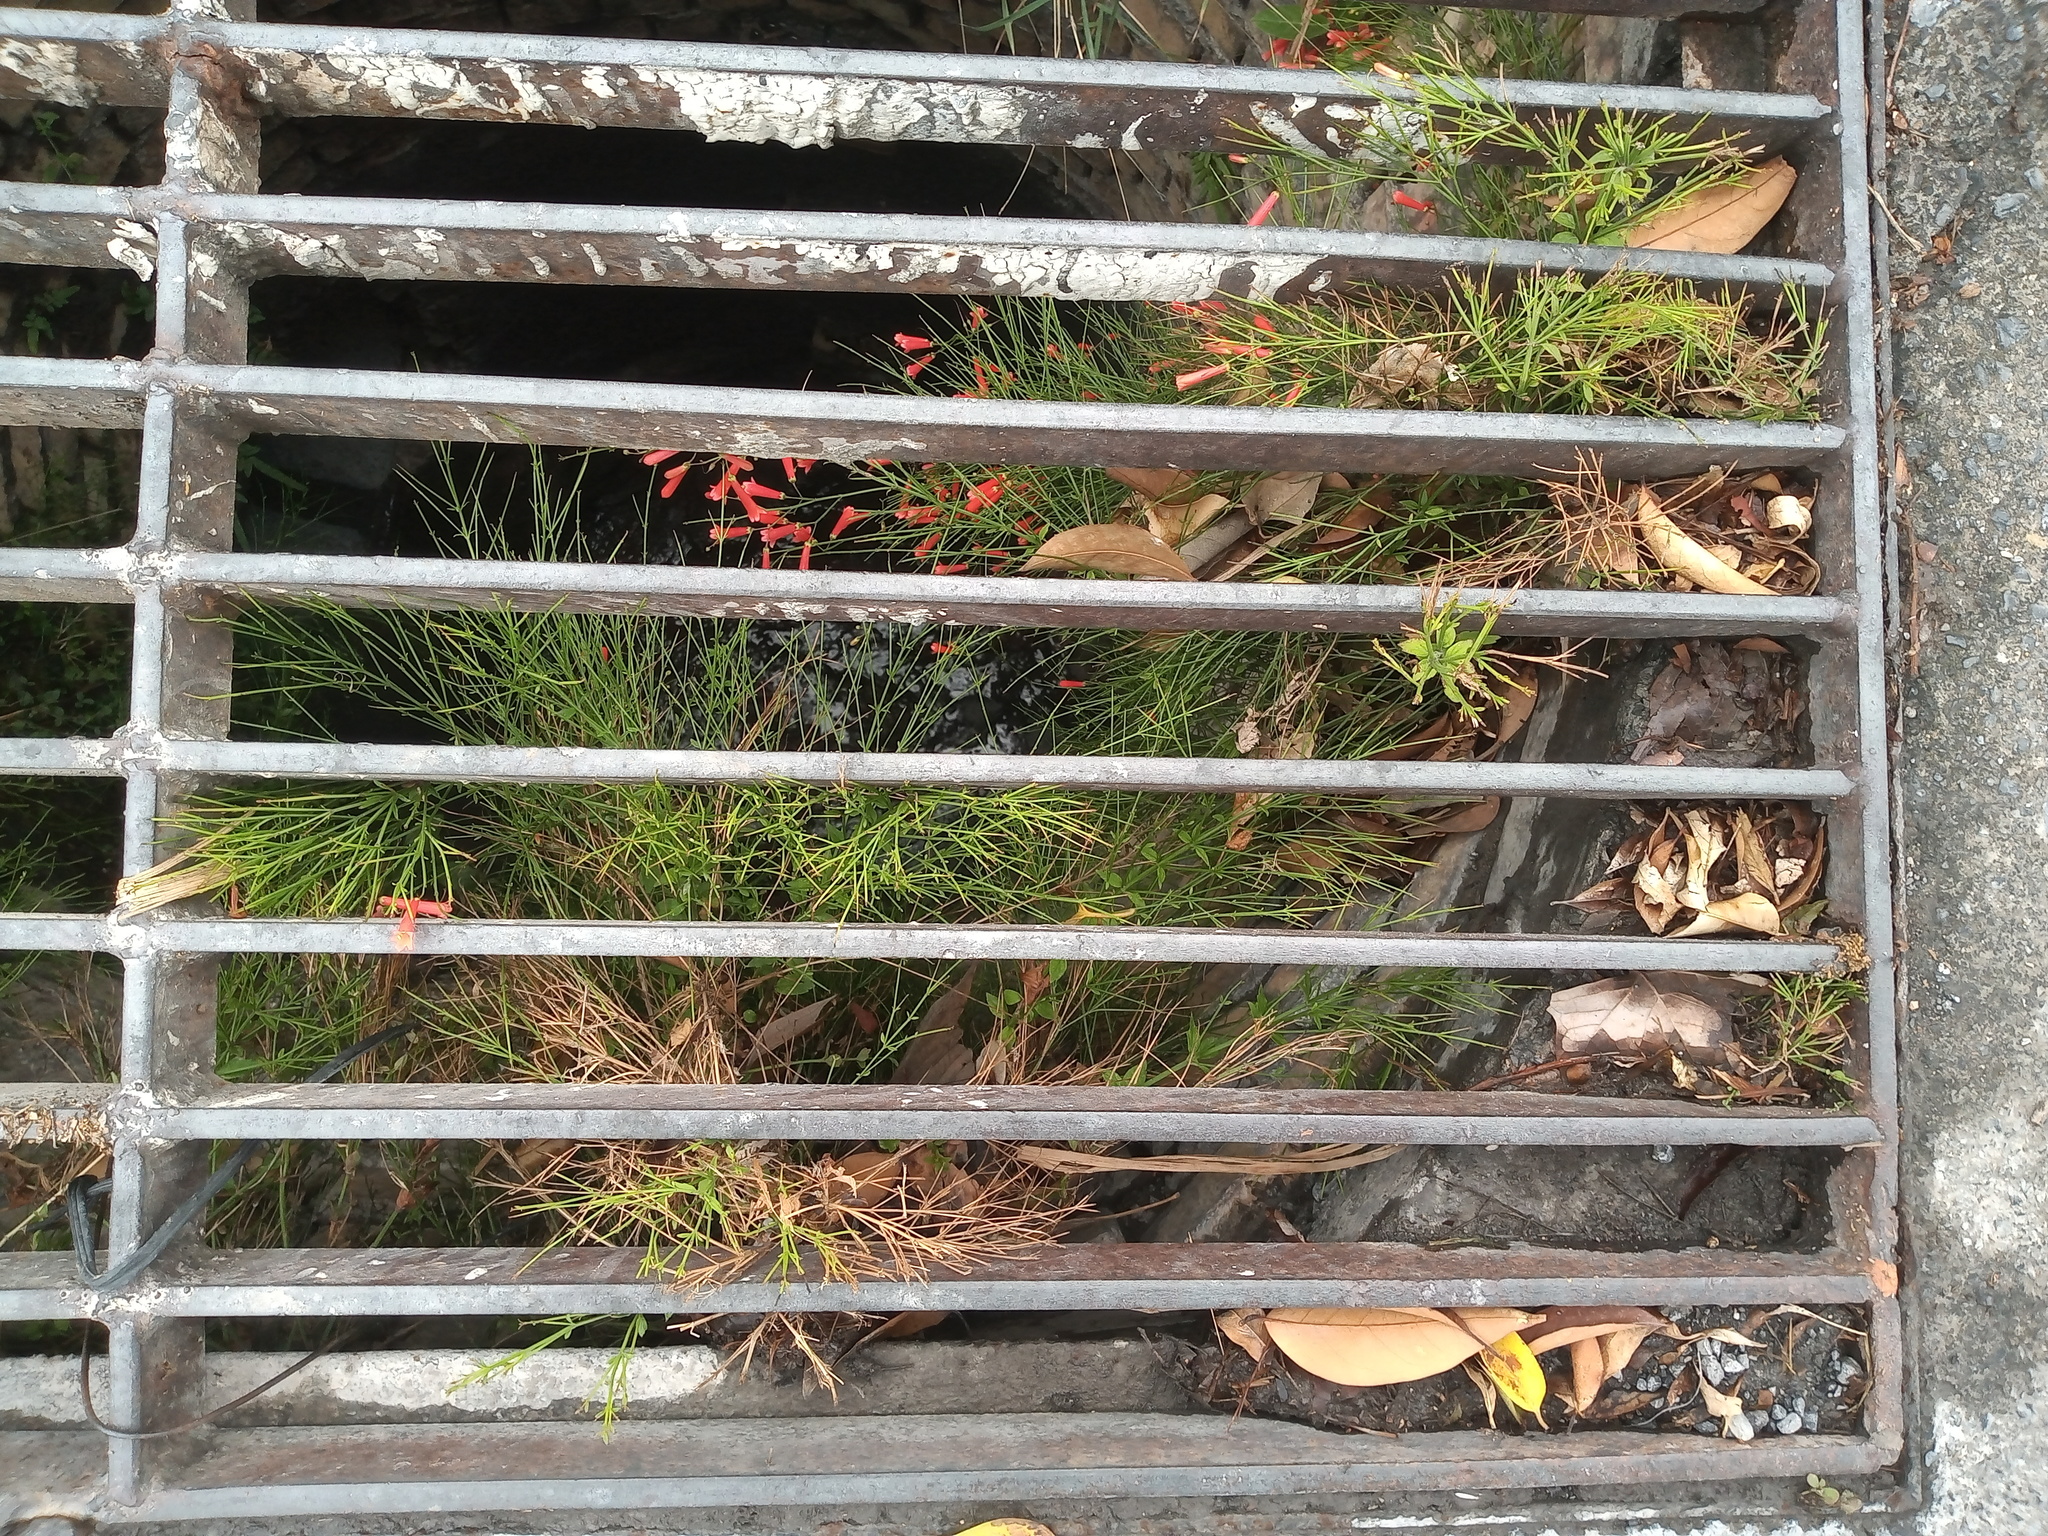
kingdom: Plantae
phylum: Tracheophyta
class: Magnoliopsida
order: Lamiales
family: Plantaginaceae
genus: Russelia
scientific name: Russelia equisetiformis
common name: Fountainbush
